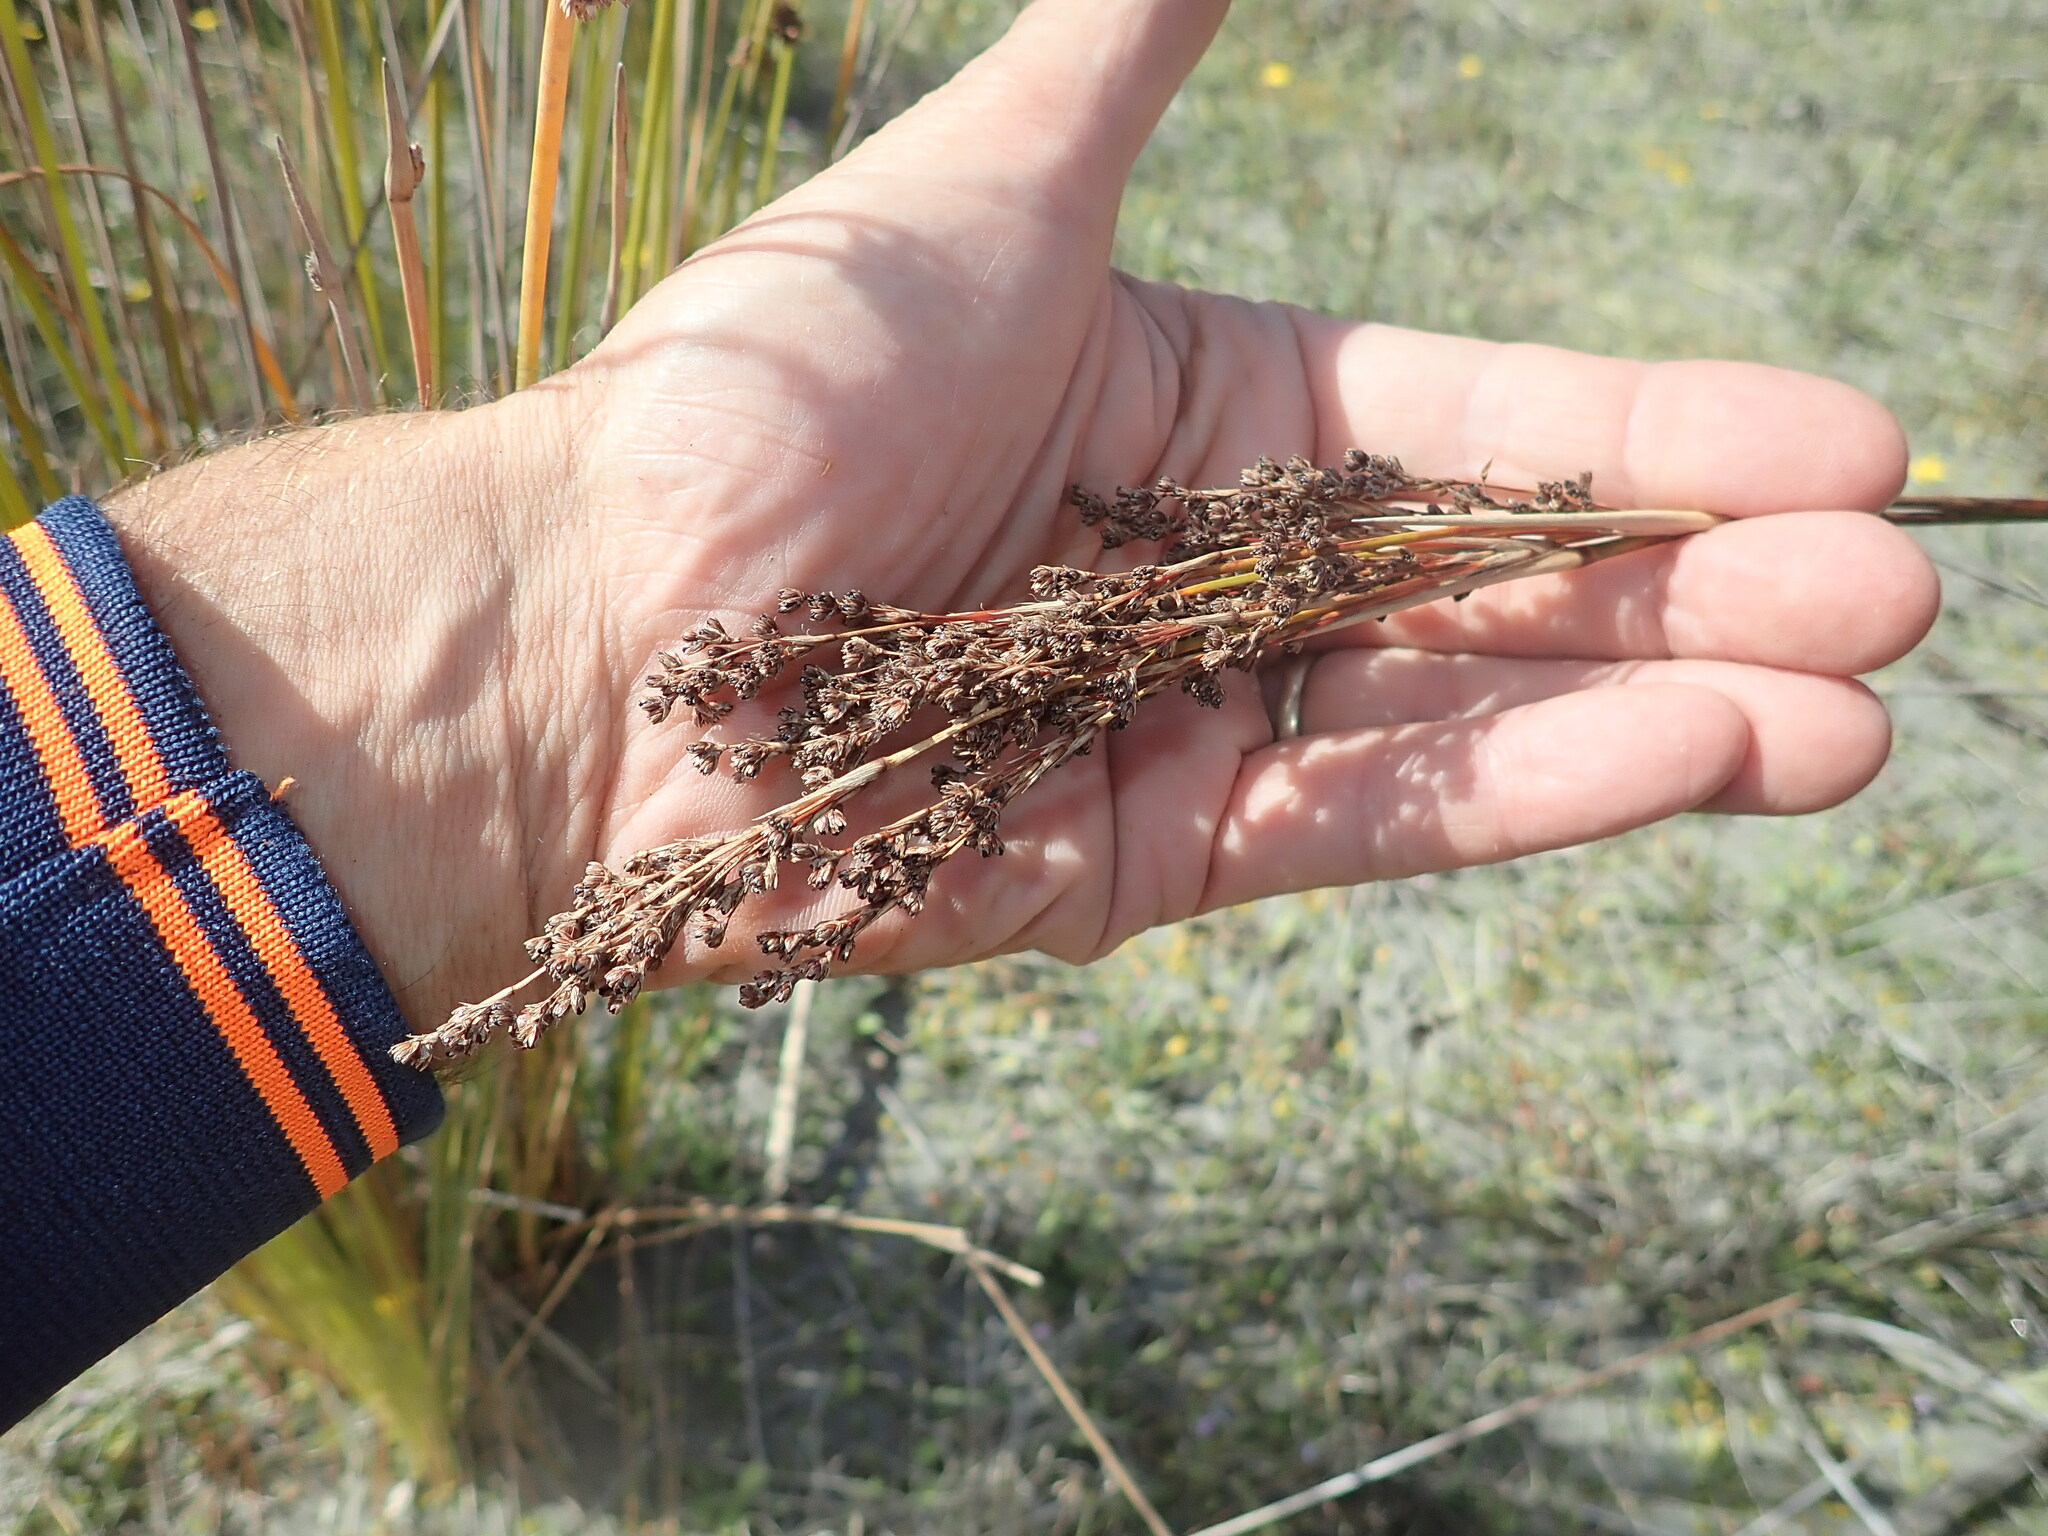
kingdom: Plantae
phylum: Tracheophyta
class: Liliopsida
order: Poales
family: Juncaceae
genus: Juncus
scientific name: Juncus kraussii
